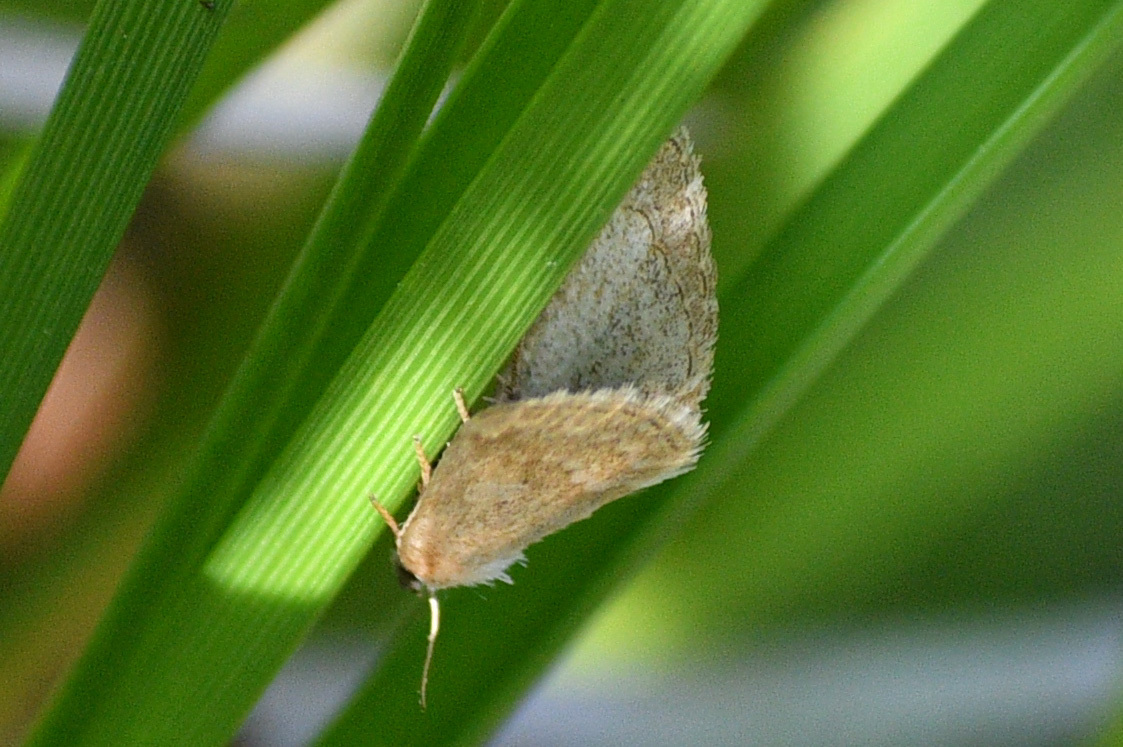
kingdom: Animalia
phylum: Arthropoda
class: Insecta
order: Lepidoptera
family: Noctuidae
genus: Protodeltote
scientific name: Protodeltote albidula
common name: Pale glyph
